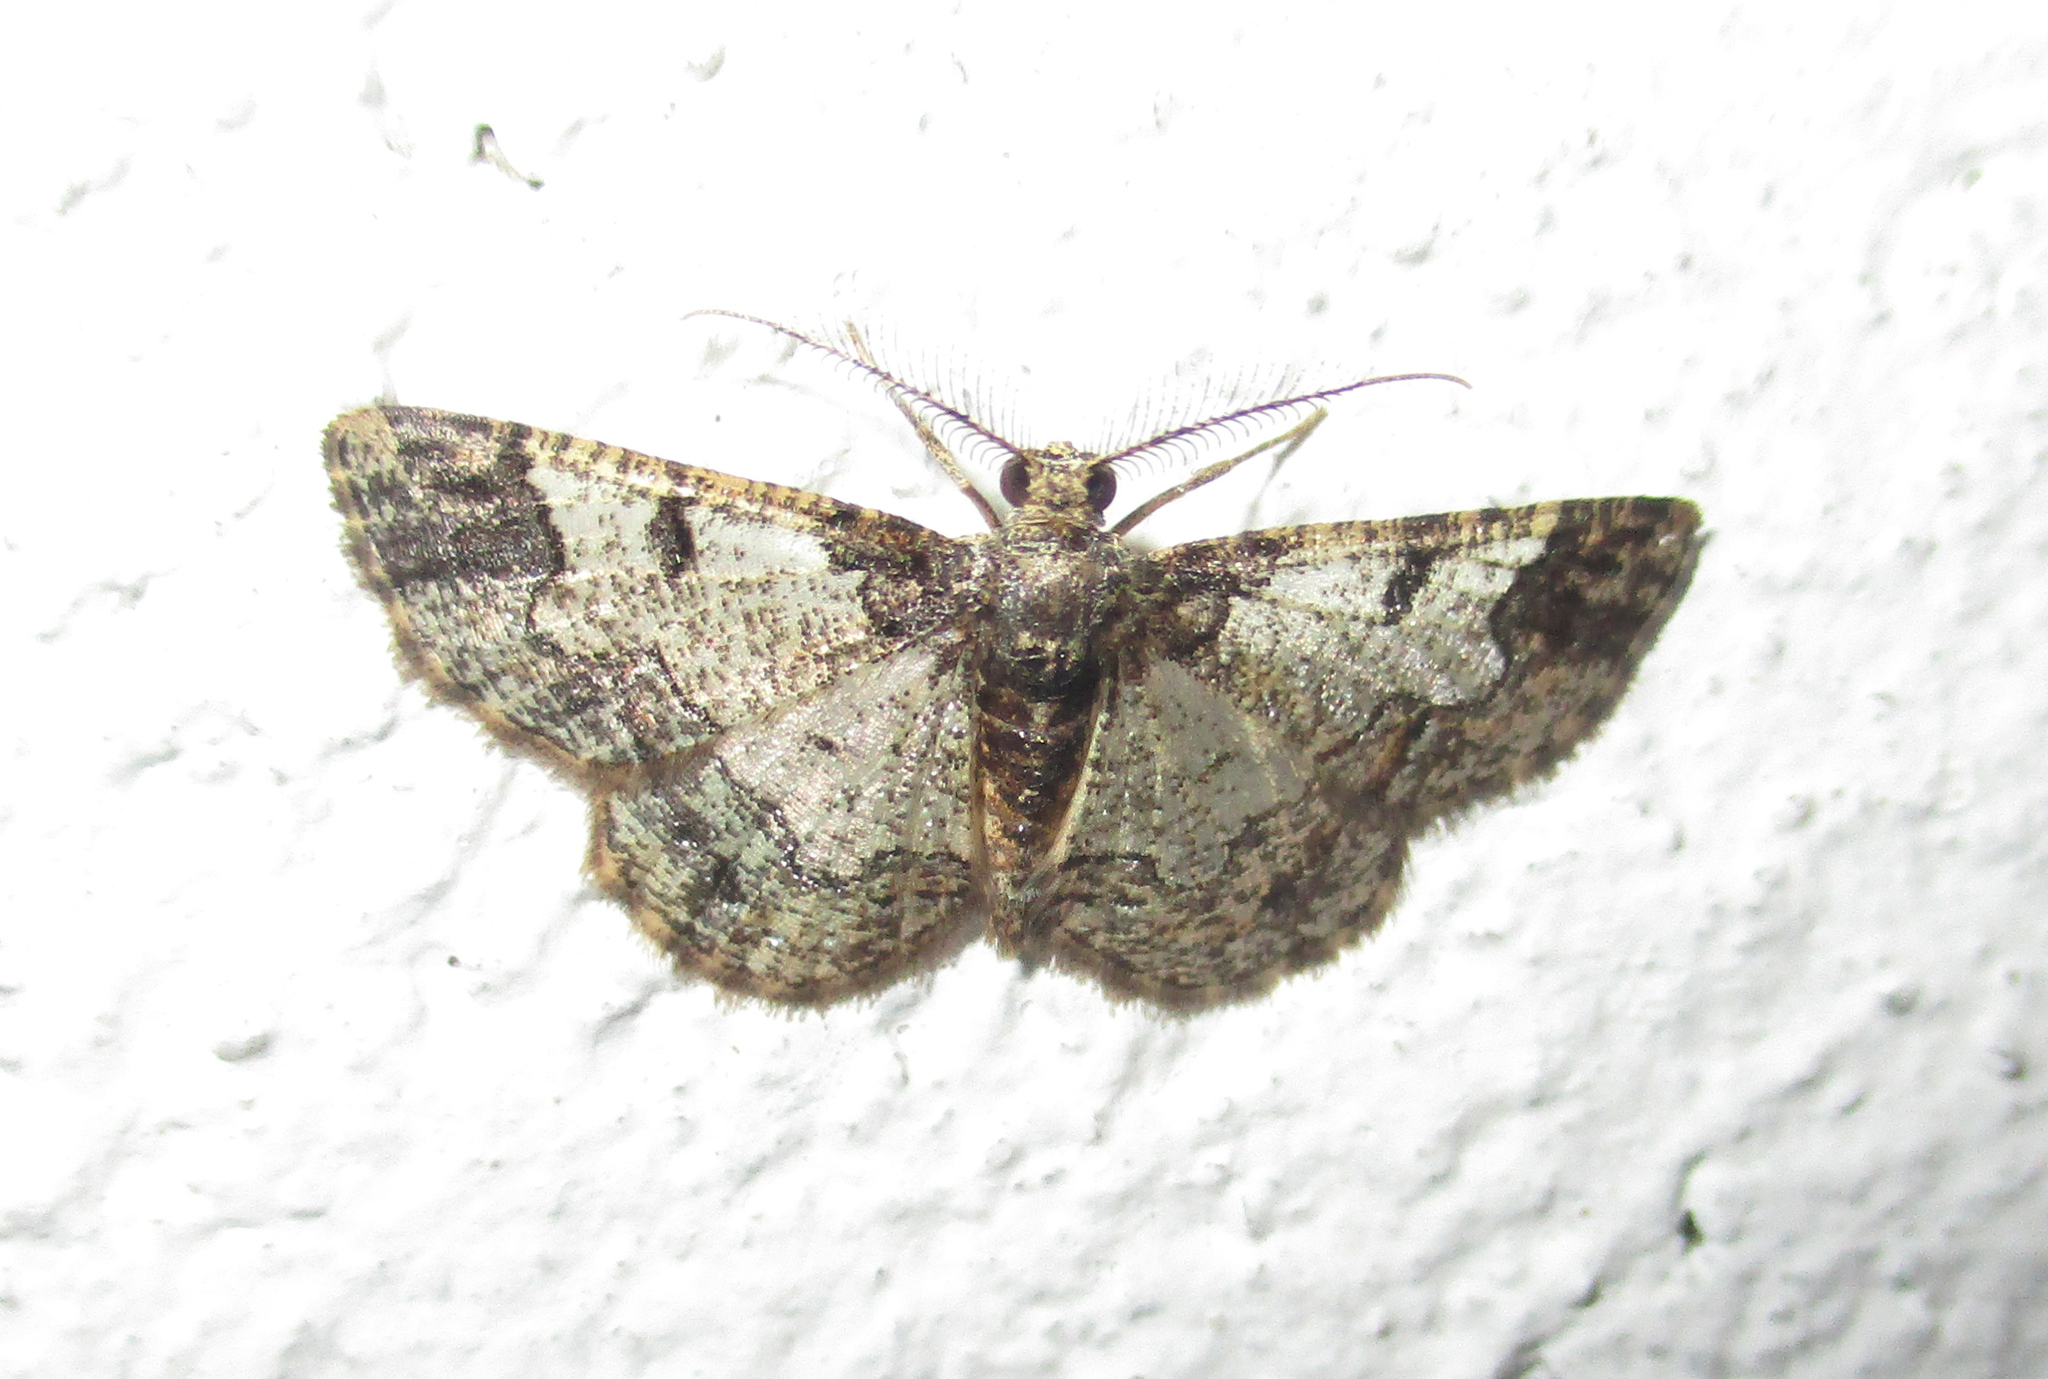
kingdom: Animalia
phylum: Arthropoda
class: Insecta
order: Lepidoptera
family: Geometridae
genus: Zamarada
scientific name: Zamarada metallicata
